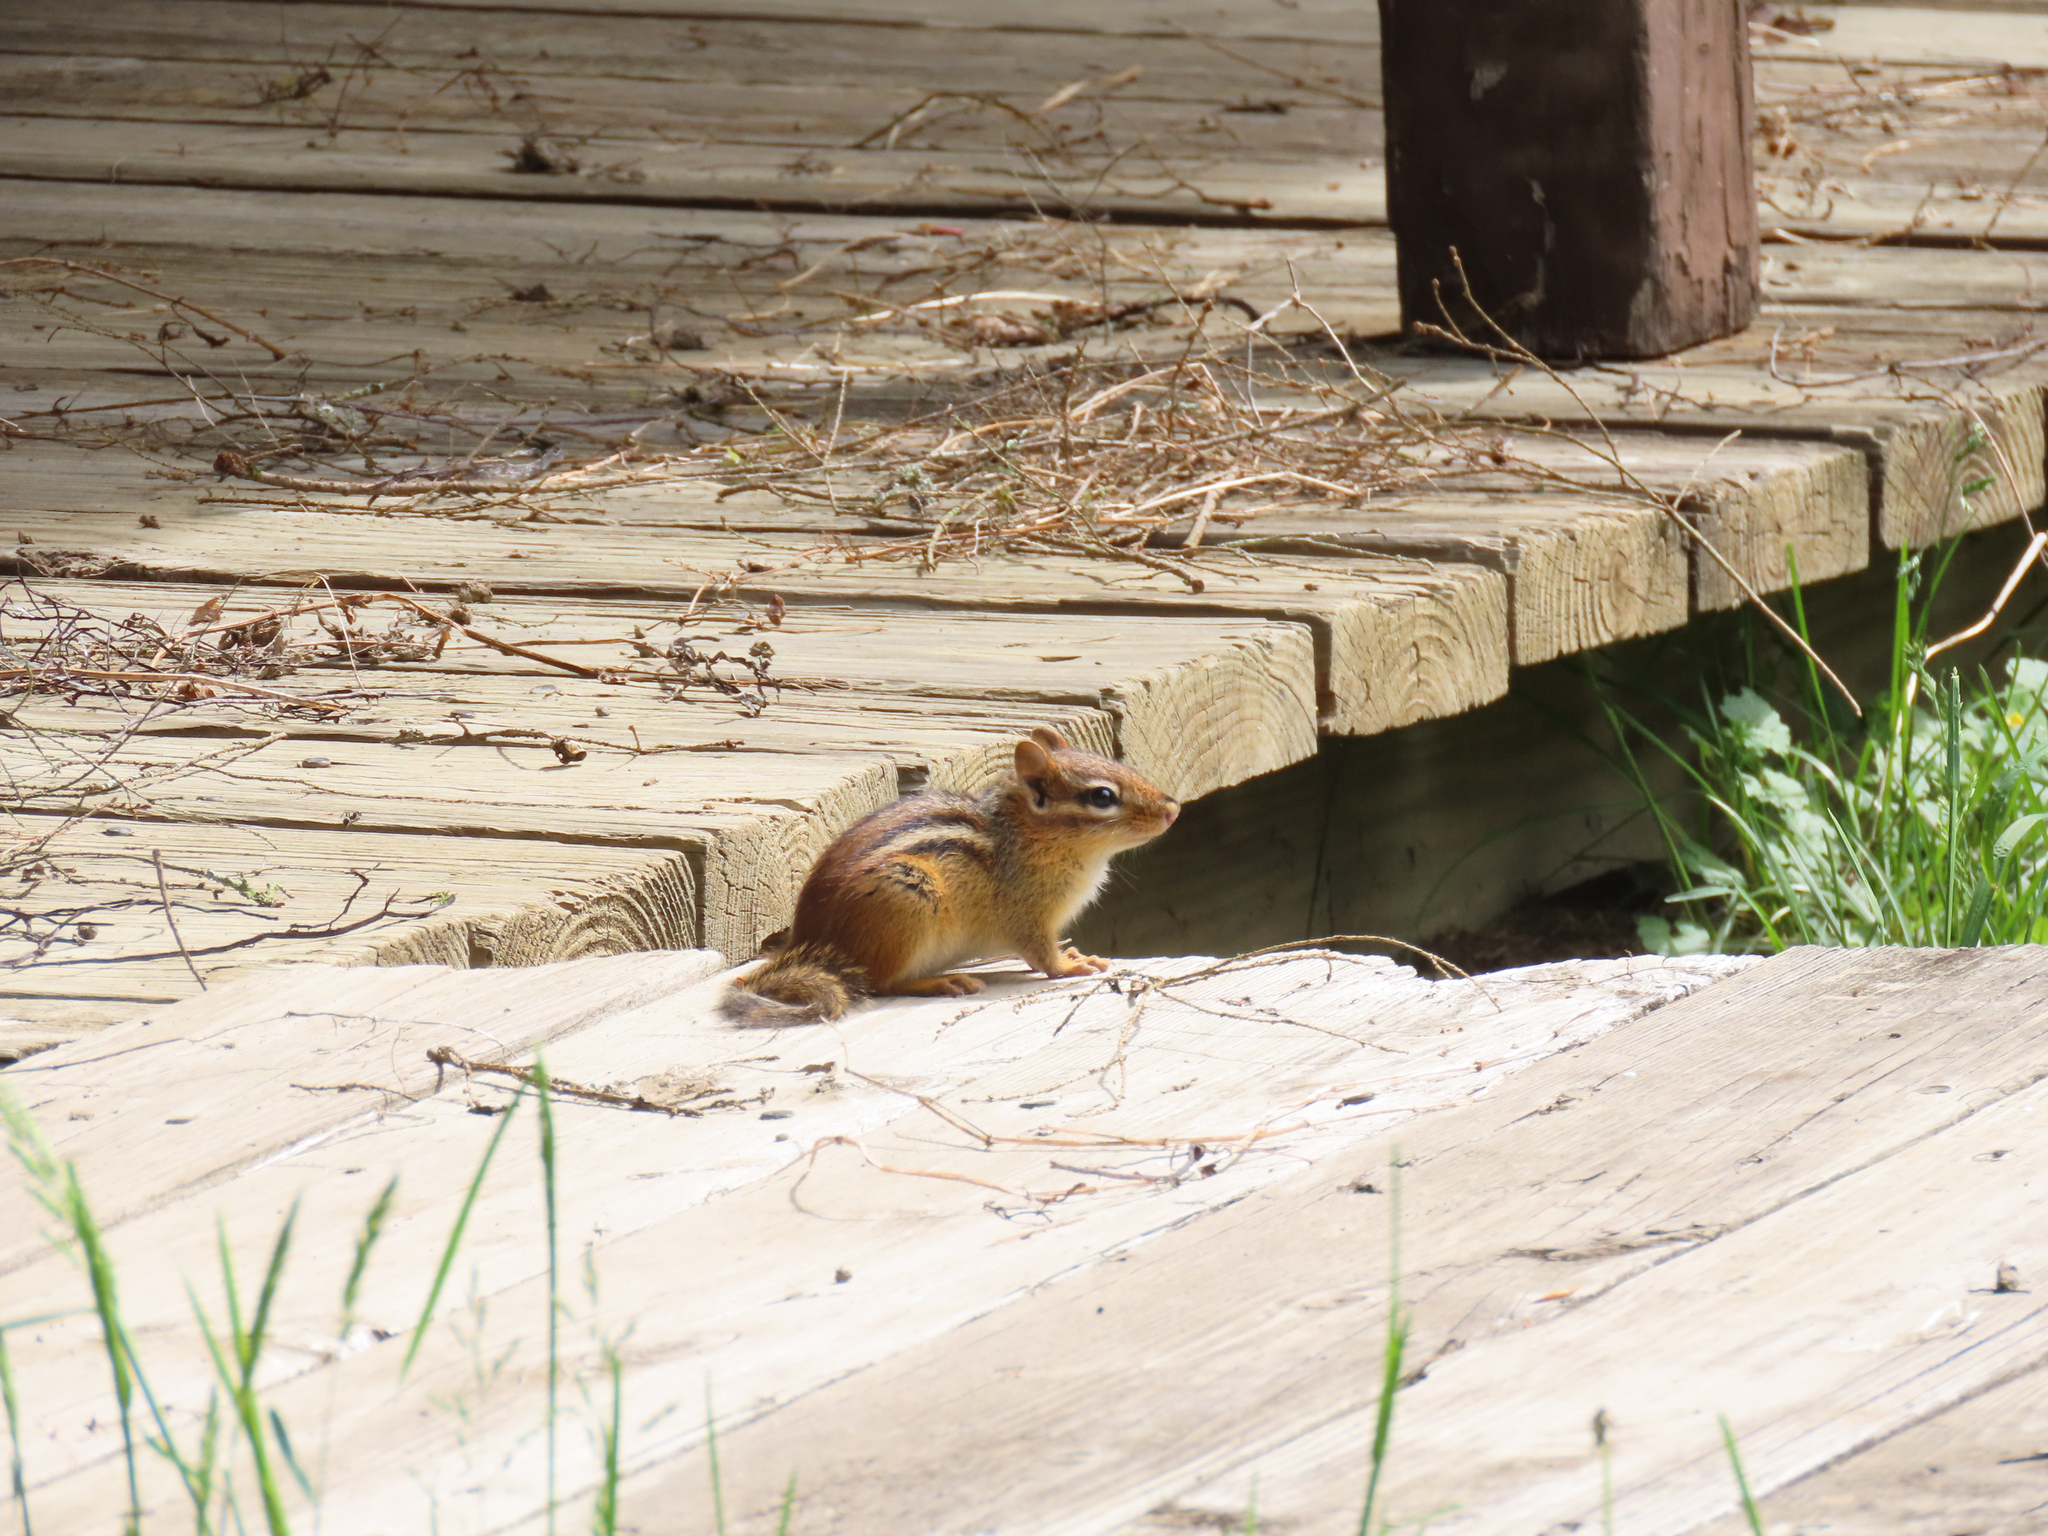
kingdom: Animalia
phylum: Chordata
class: Mammalia
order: Rodentia
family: Sciuridae
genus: Tamias
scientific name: Tamias striatus
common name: Eastern chipmunk
